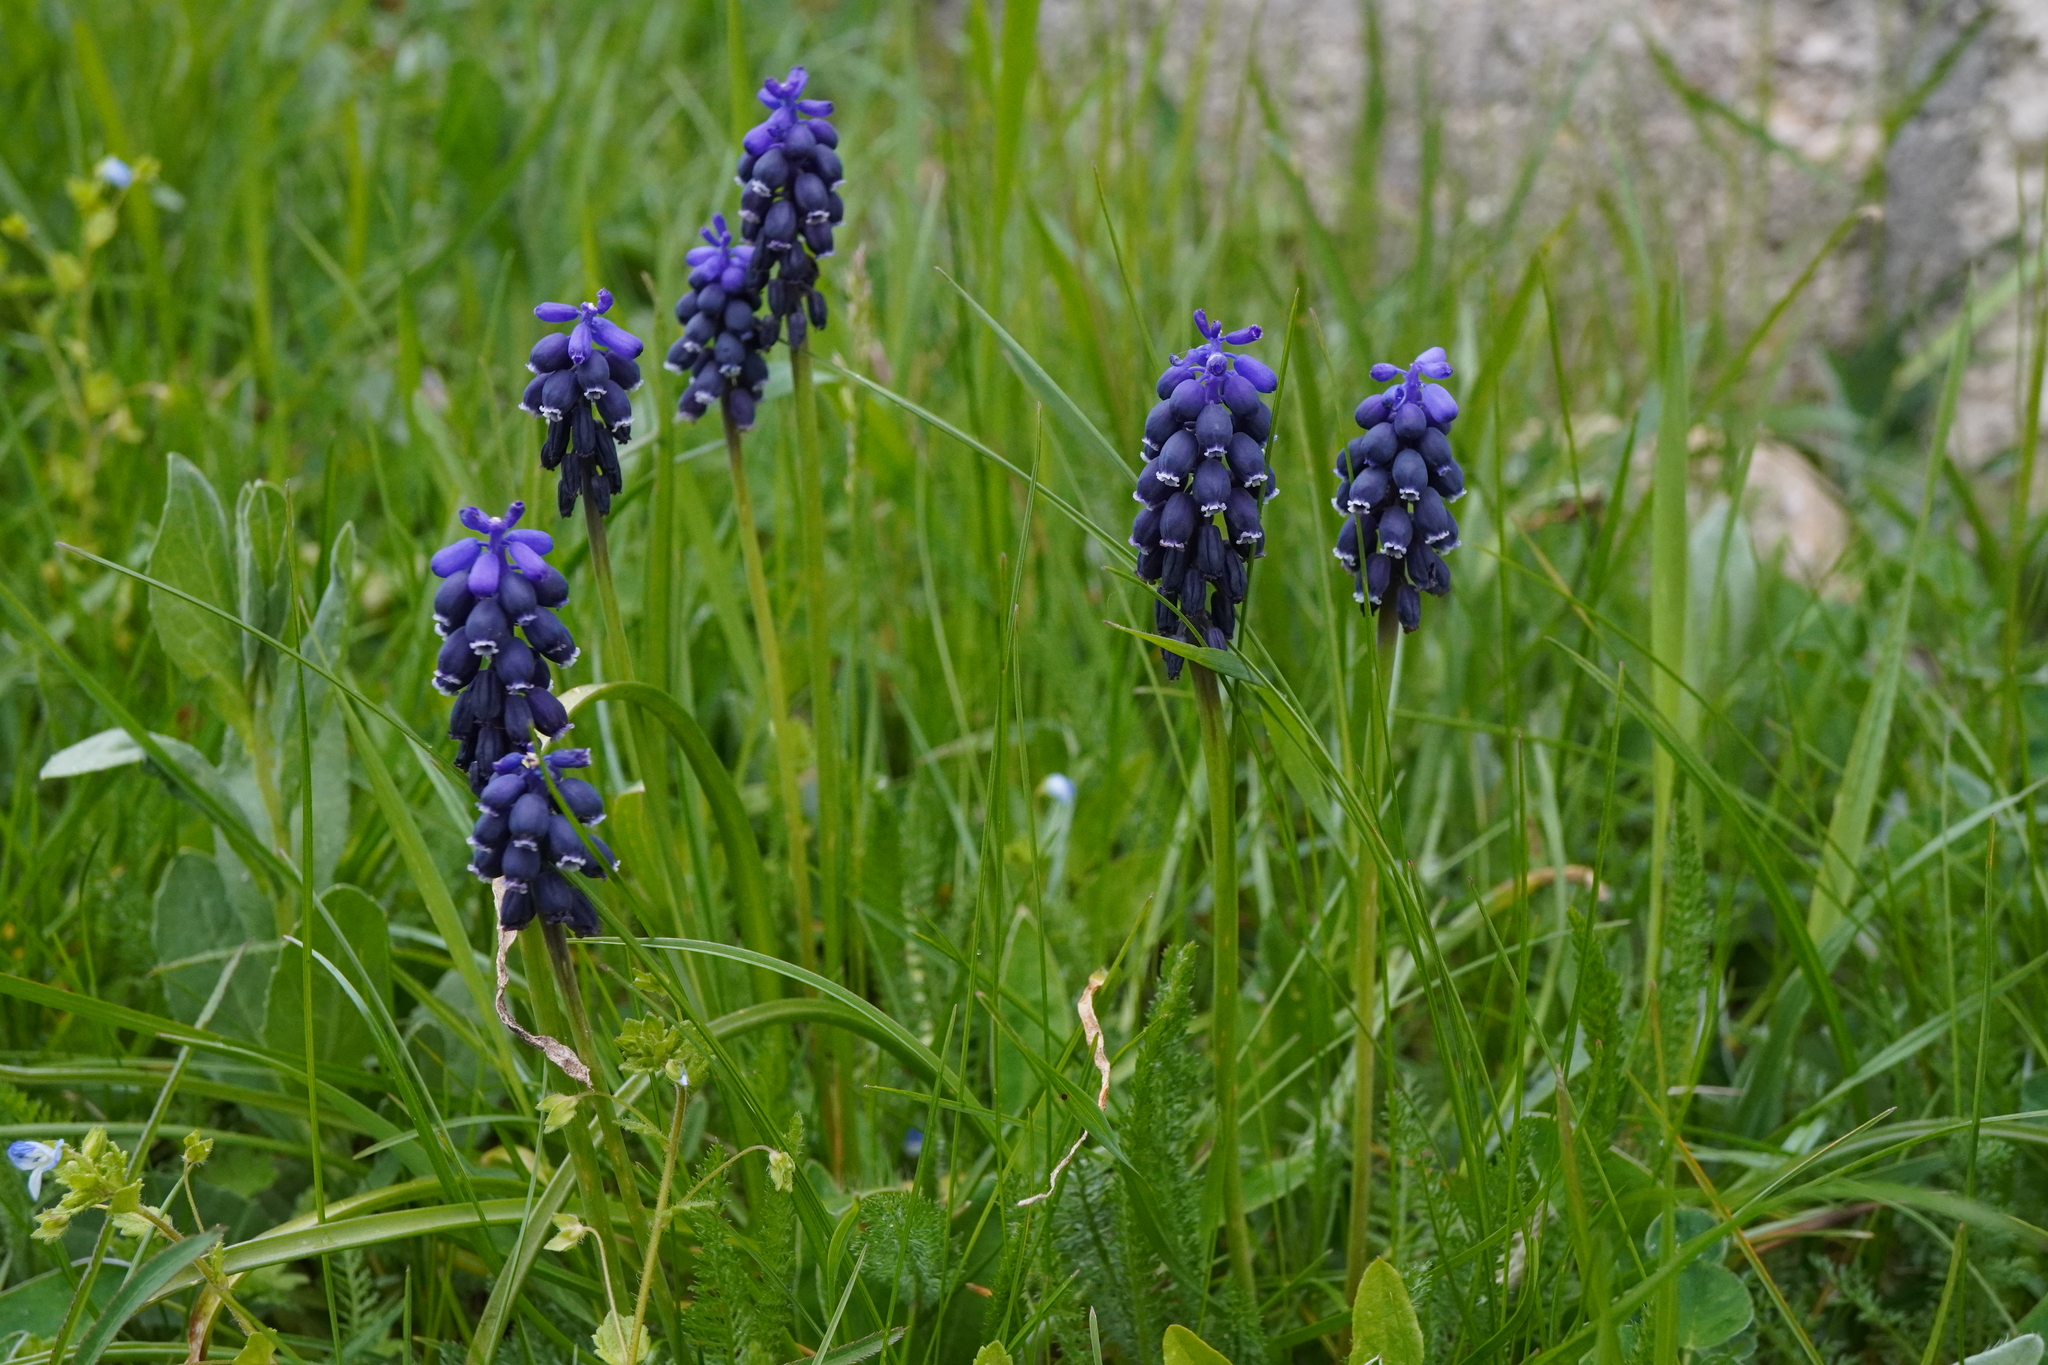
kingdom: Plantae
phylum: Tracheophyta
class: Liliopsida
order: Asparagales
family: Asparagaceae
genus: Muscari
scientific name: Muscari neglectum
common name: Grape-hyacinth
